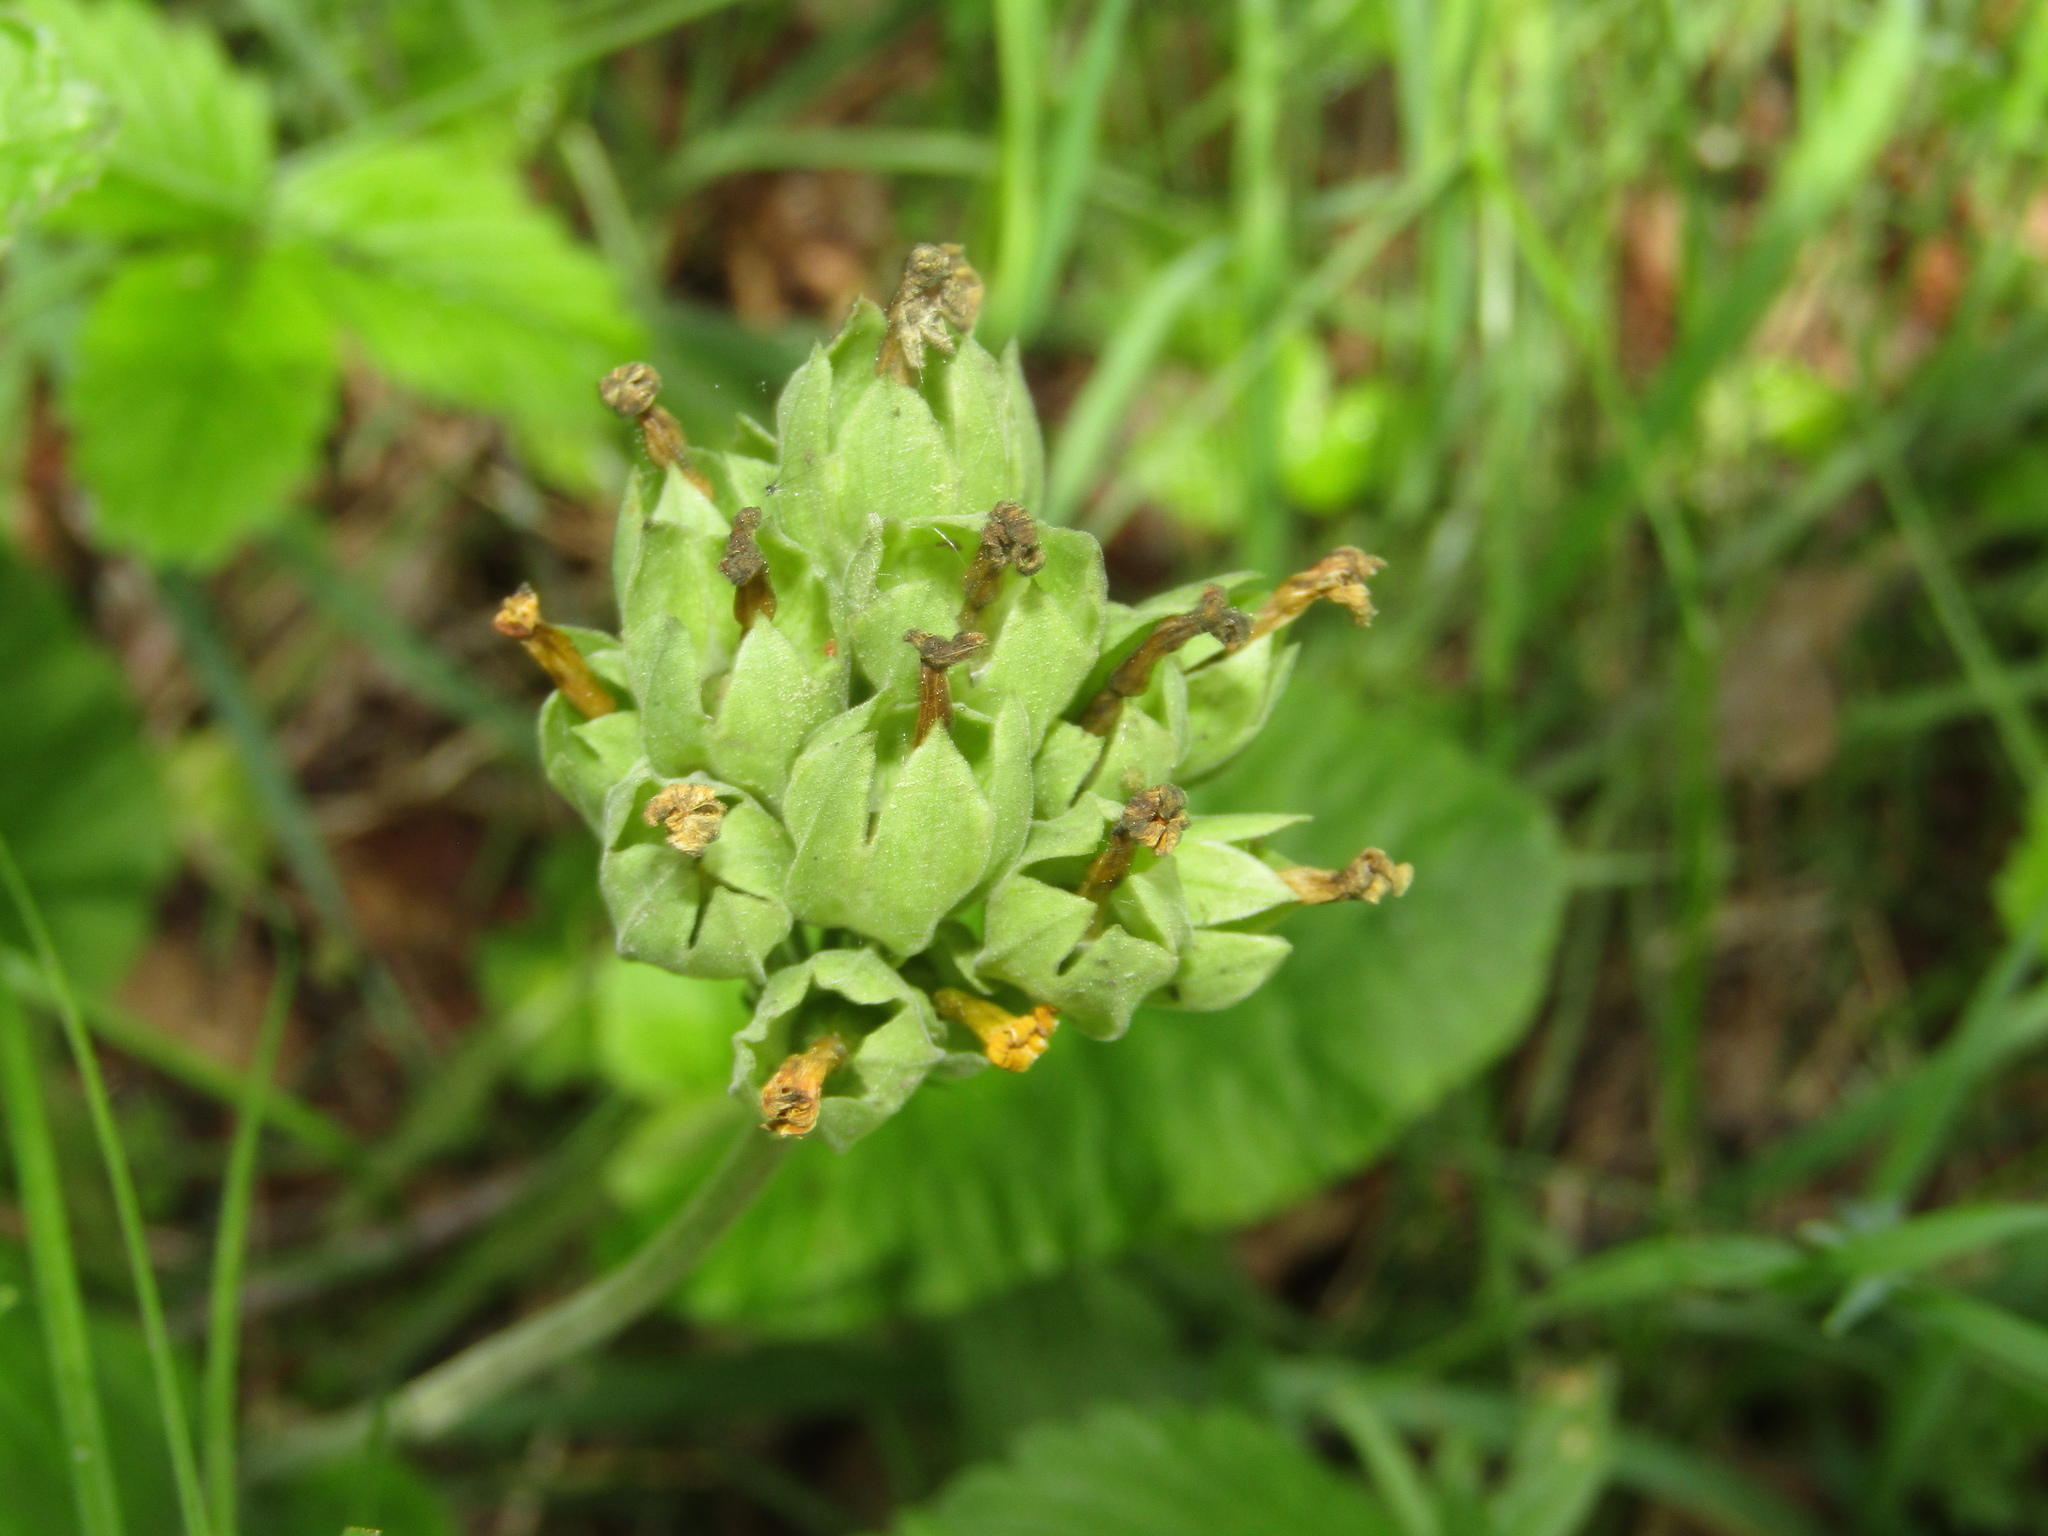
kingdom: Plantae
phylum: Tracheophyta
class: Magnoliopsida
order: Ericales
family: Primulaceae
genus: Primula
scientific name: Primula veris
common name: Cowslip
